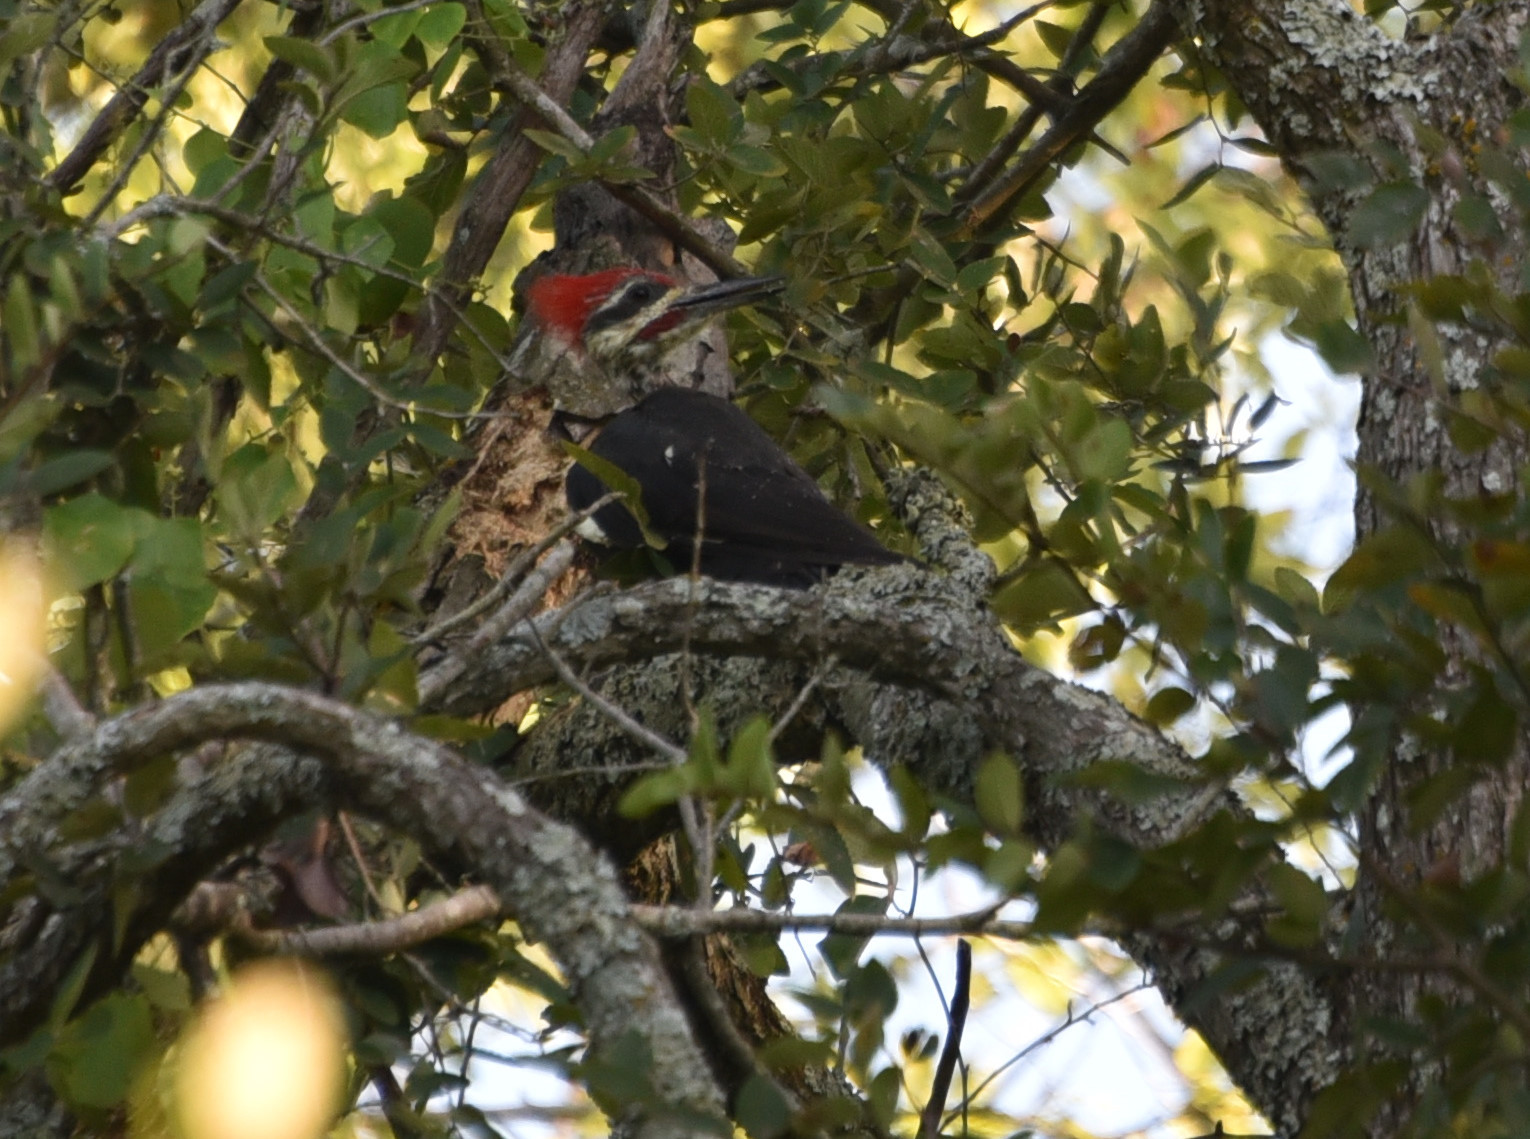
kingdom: Animalia
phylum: Chordata
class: Aves
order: Piciformes
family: Picidae
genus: Dryocopus
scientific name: Dryocopus pileatus
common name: Pileated woodpecker
